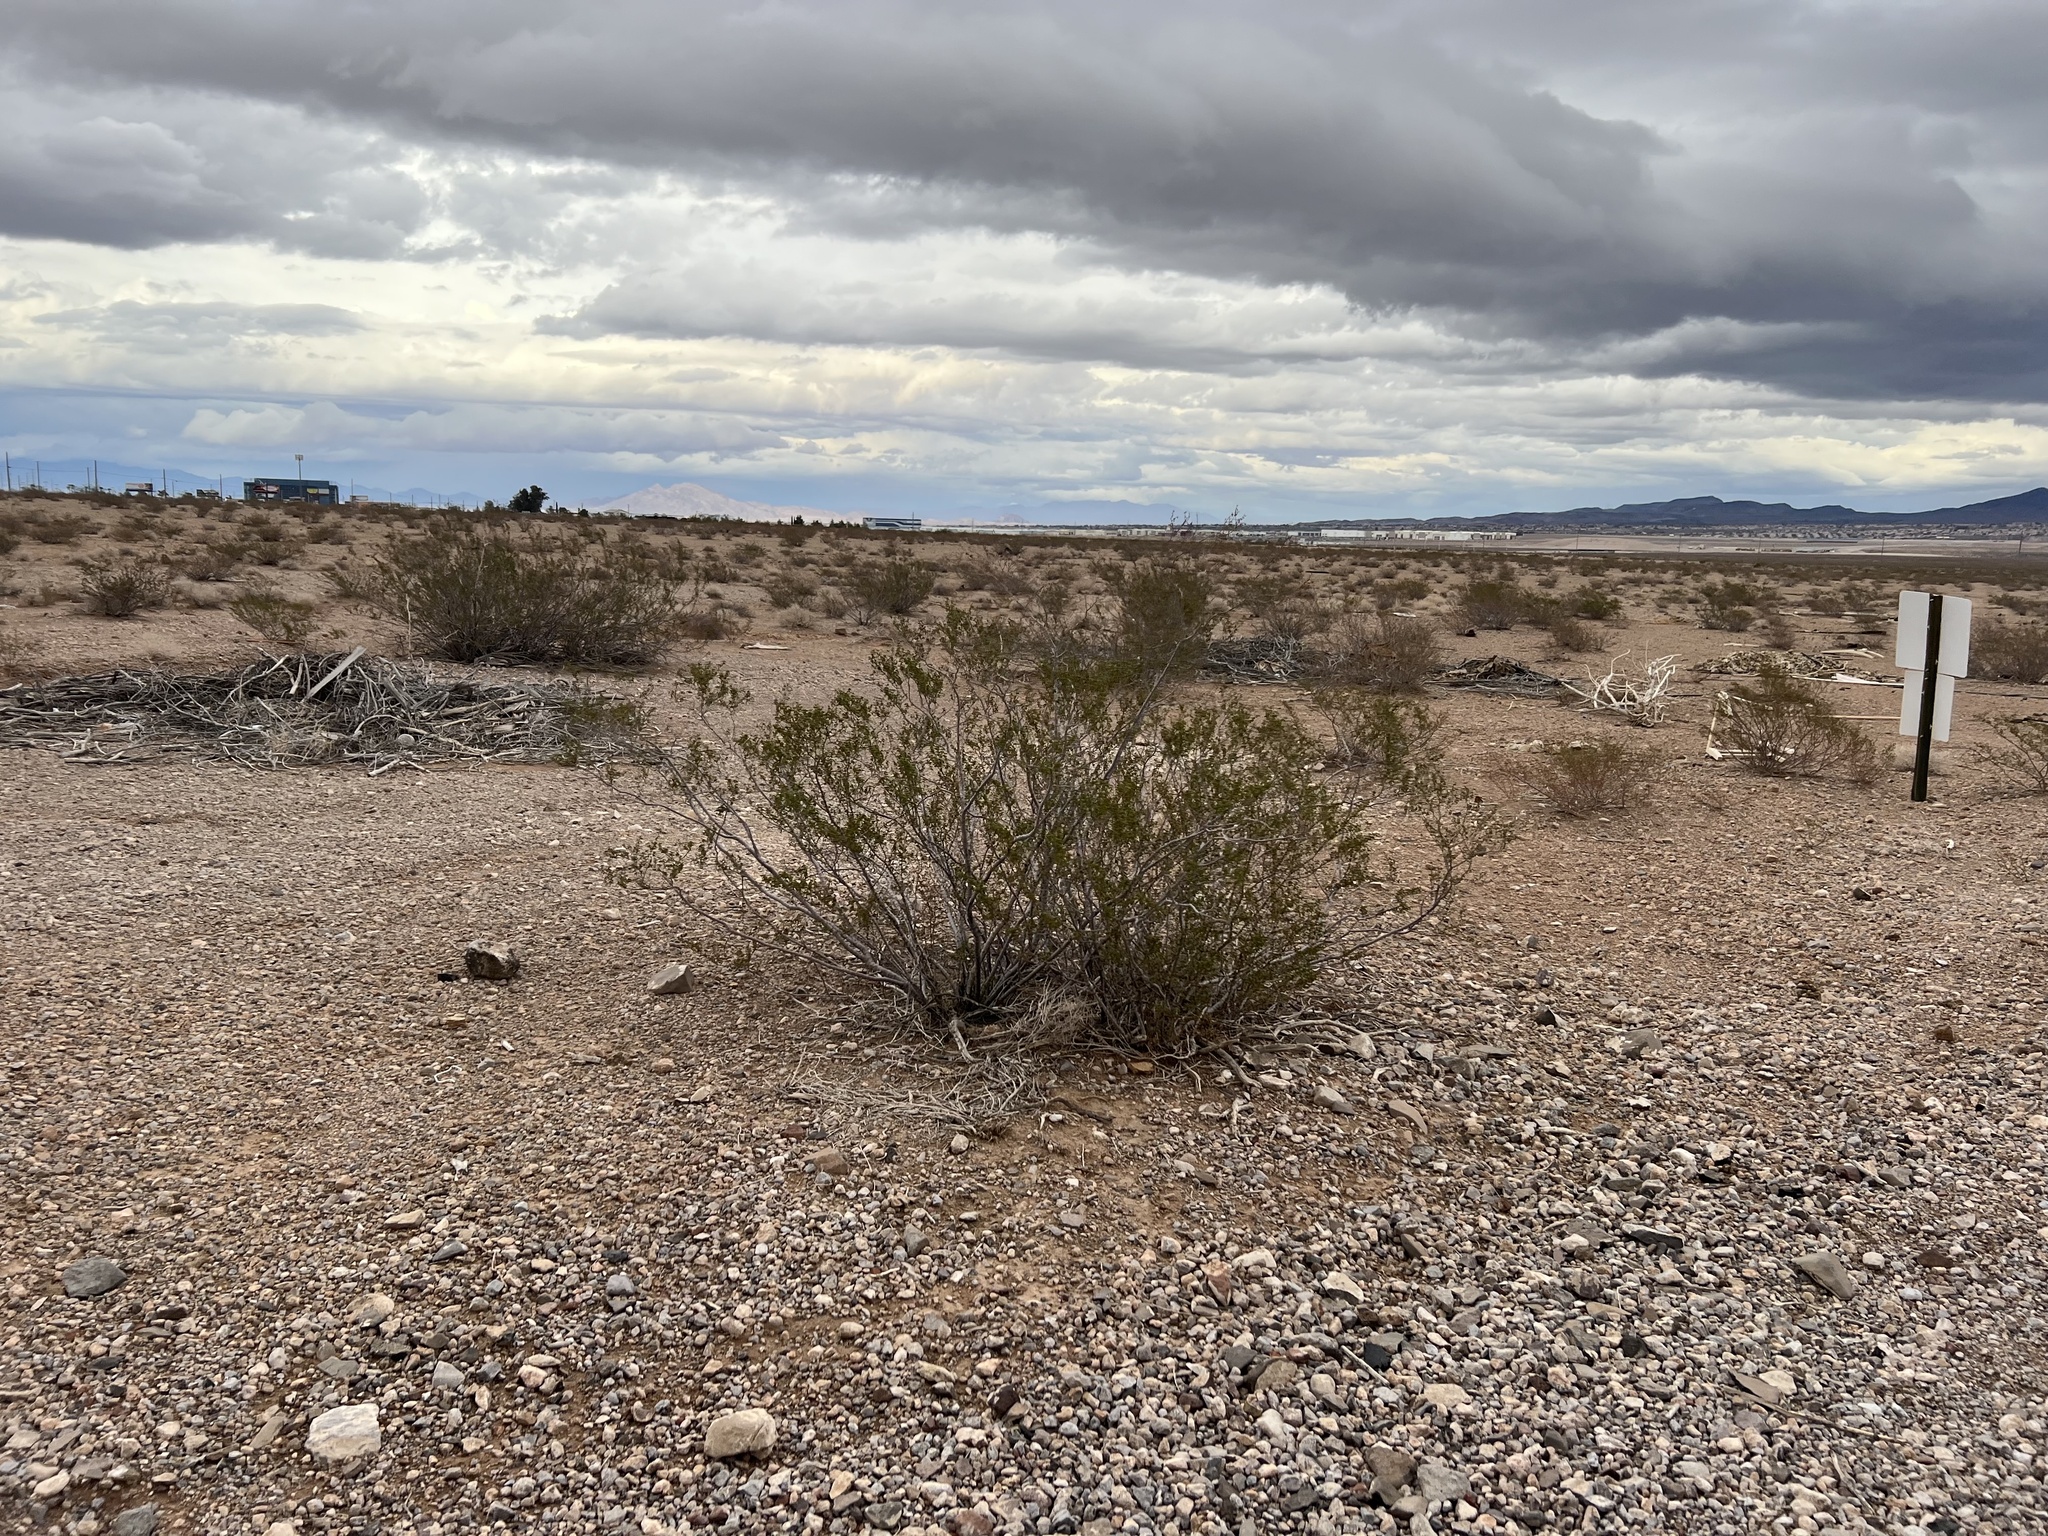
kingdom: Plantae
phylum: Tracheophyta
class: Magnoliopsida
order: Zygophyllales
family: Zygophyllaceae
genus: Larrea
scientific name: Larrea tridentata
